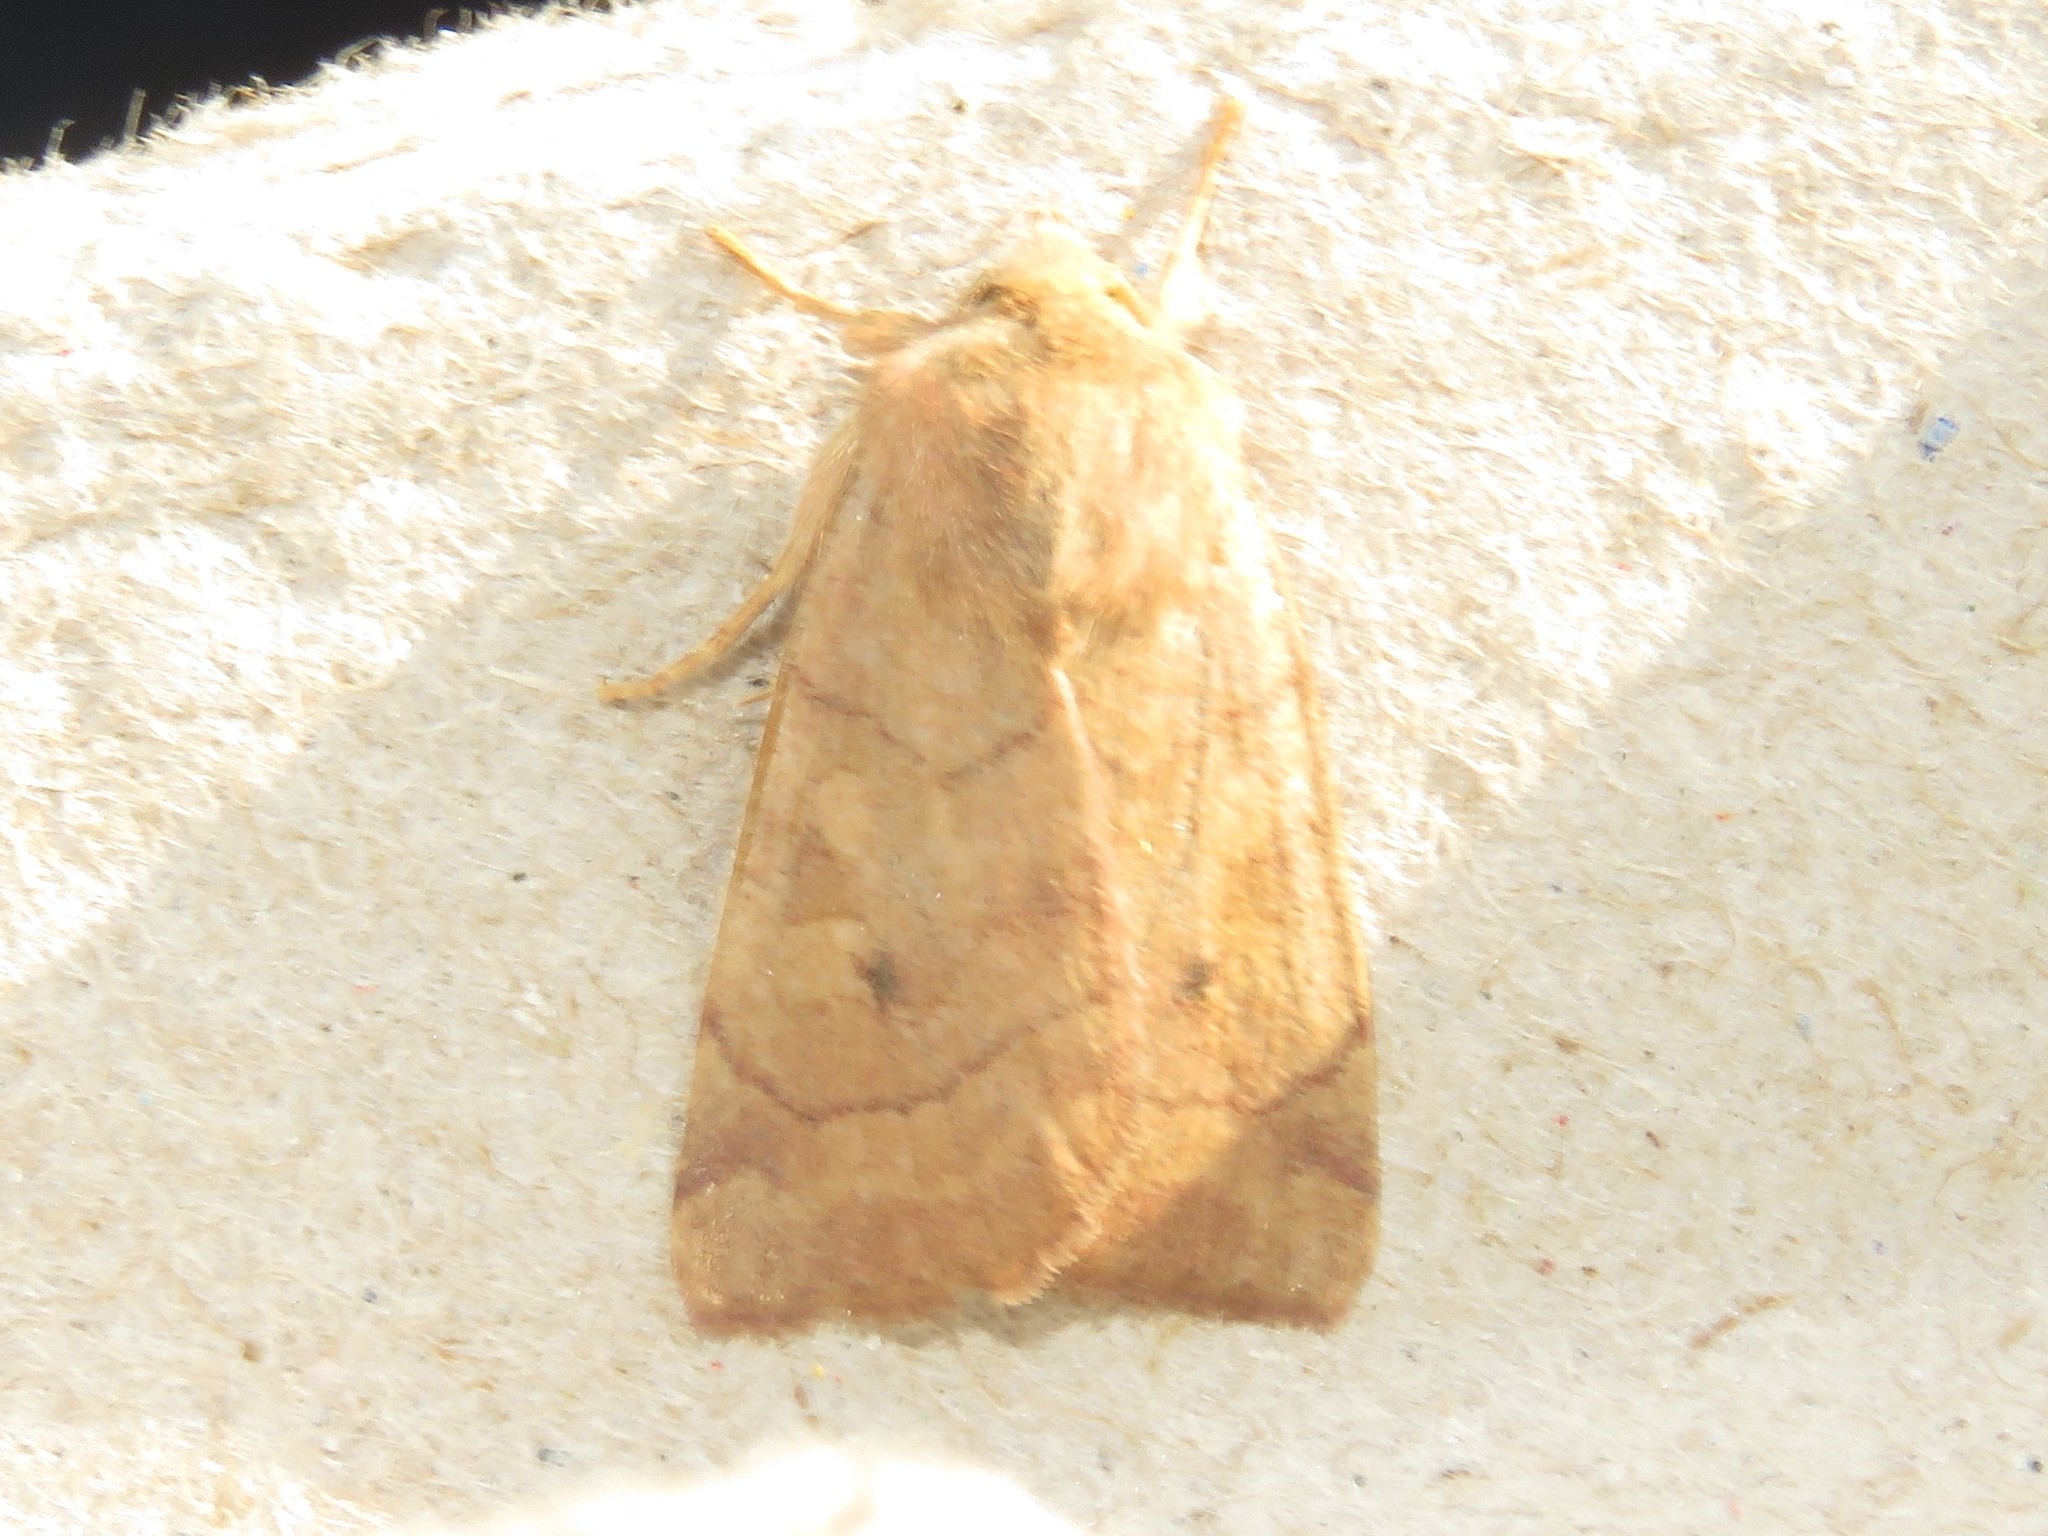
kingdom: Animalia
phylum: Arthropoda
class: Insecta
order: Lepidoptera
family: Noctuidae
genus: Enargia
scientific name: Enargia infumata
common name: Smoked sallow
